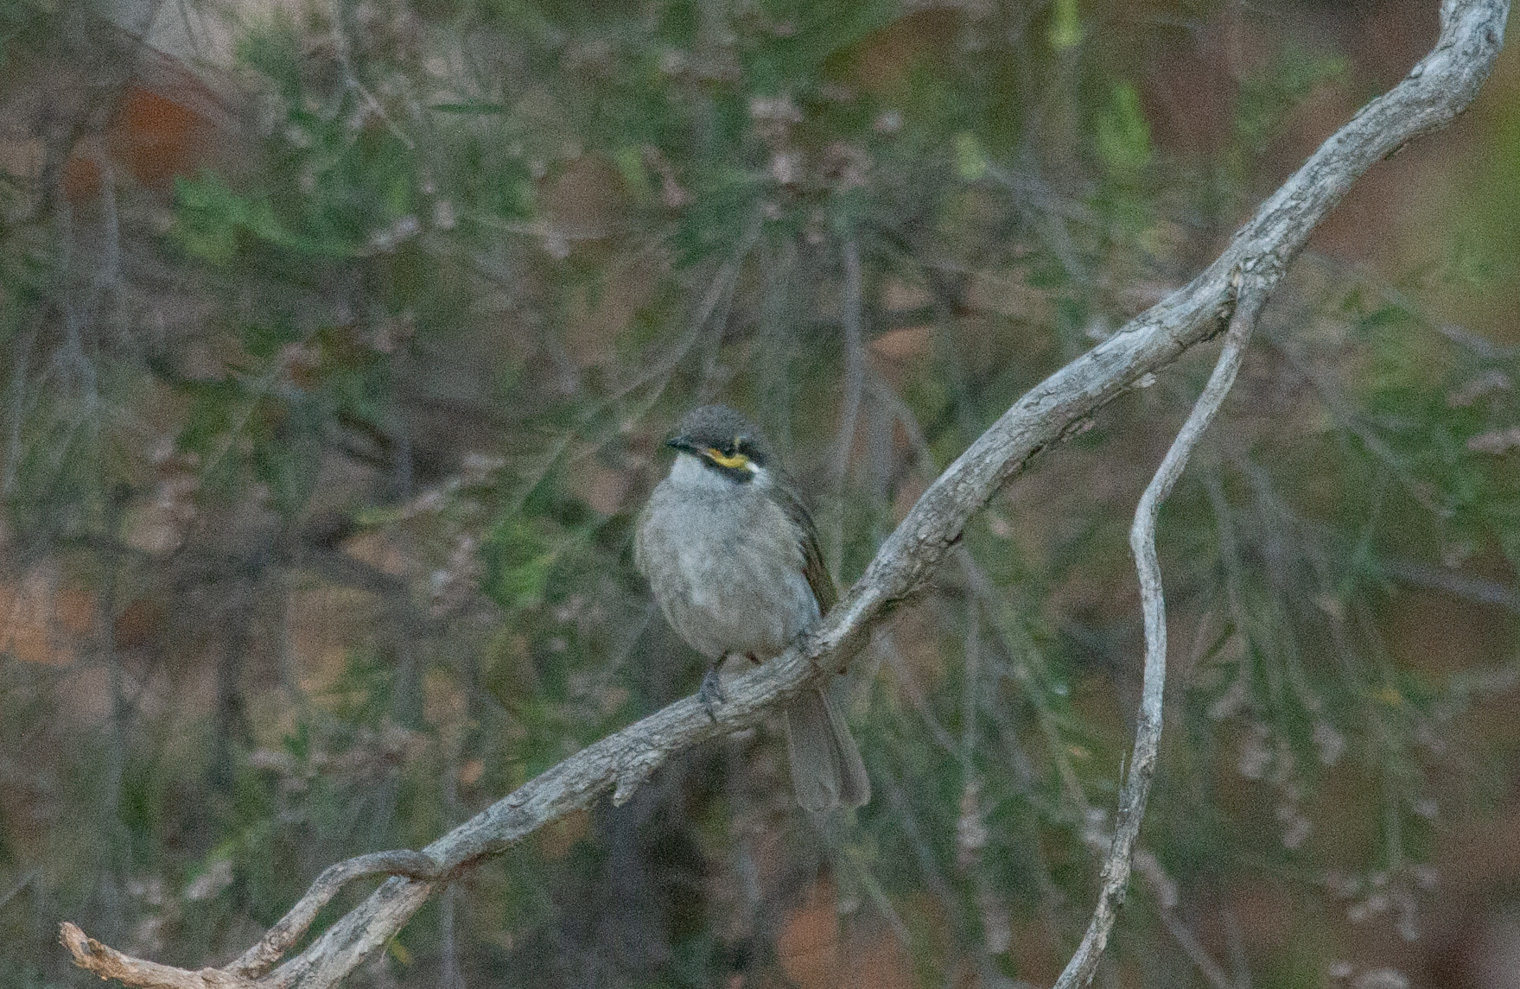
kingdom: Animalia
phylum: Chordata
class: Aves
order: Passeriformes
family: Meliphagidae
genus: Caligavis
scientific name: Caligavis chrysops
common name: Yellow-faced honeyeater
